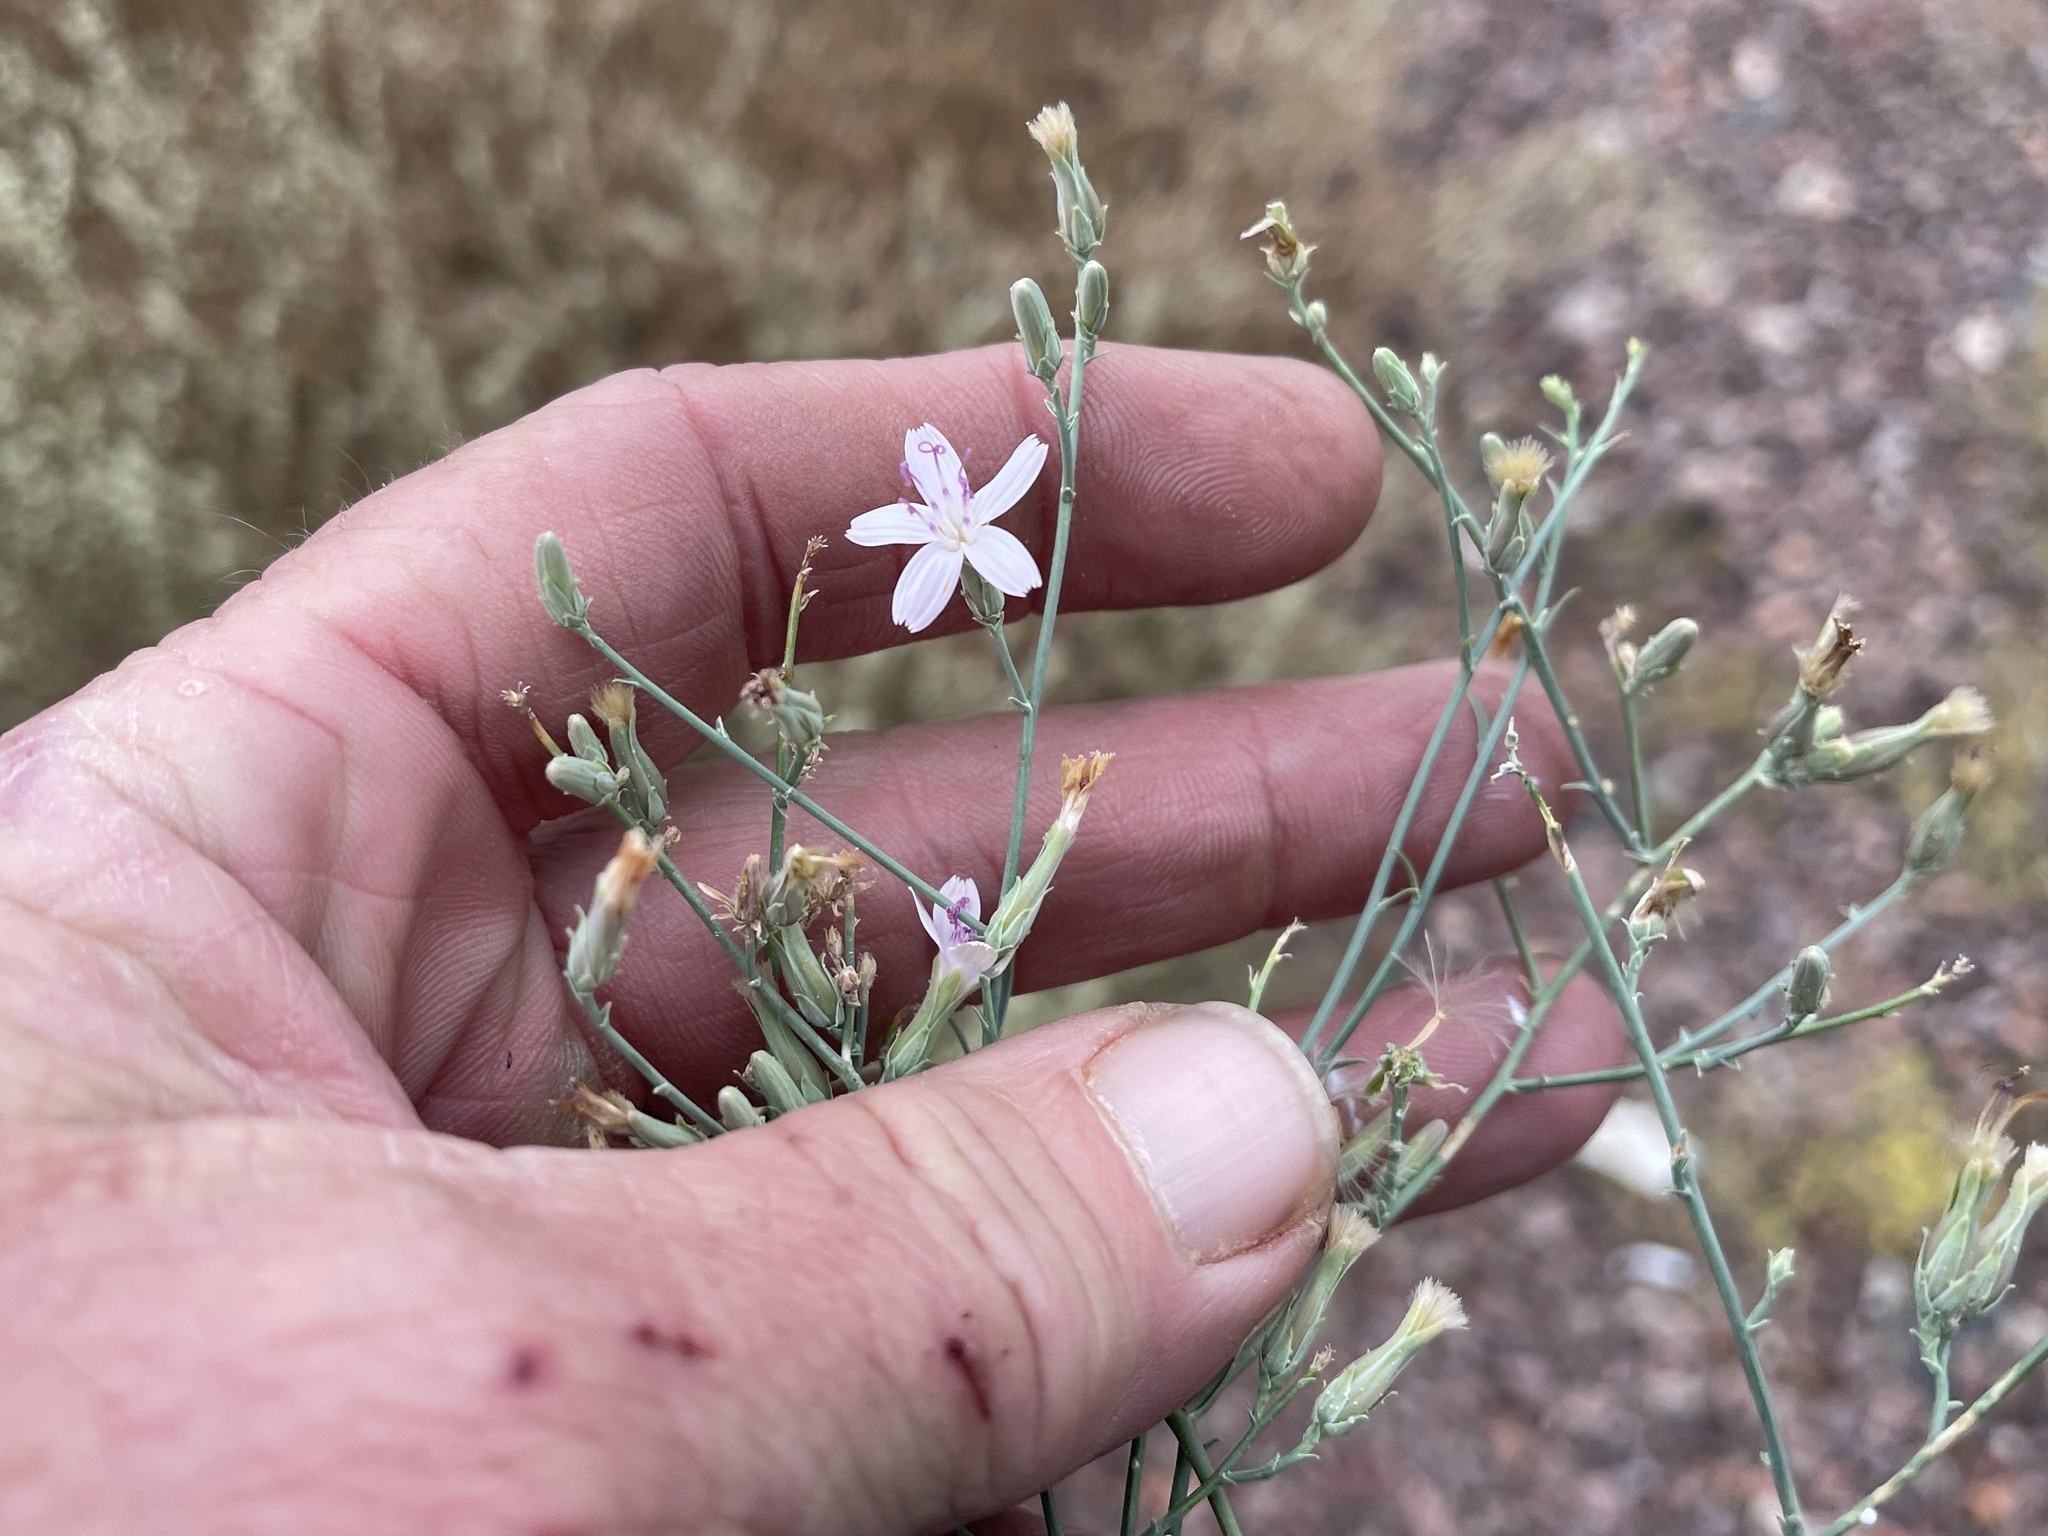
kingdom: Plantae
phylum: Tracheophyta
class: Magnoliopsida
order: Asterales
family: Asteraceae
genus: Stephanomeria
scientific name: Stephanomeria pauciflora
